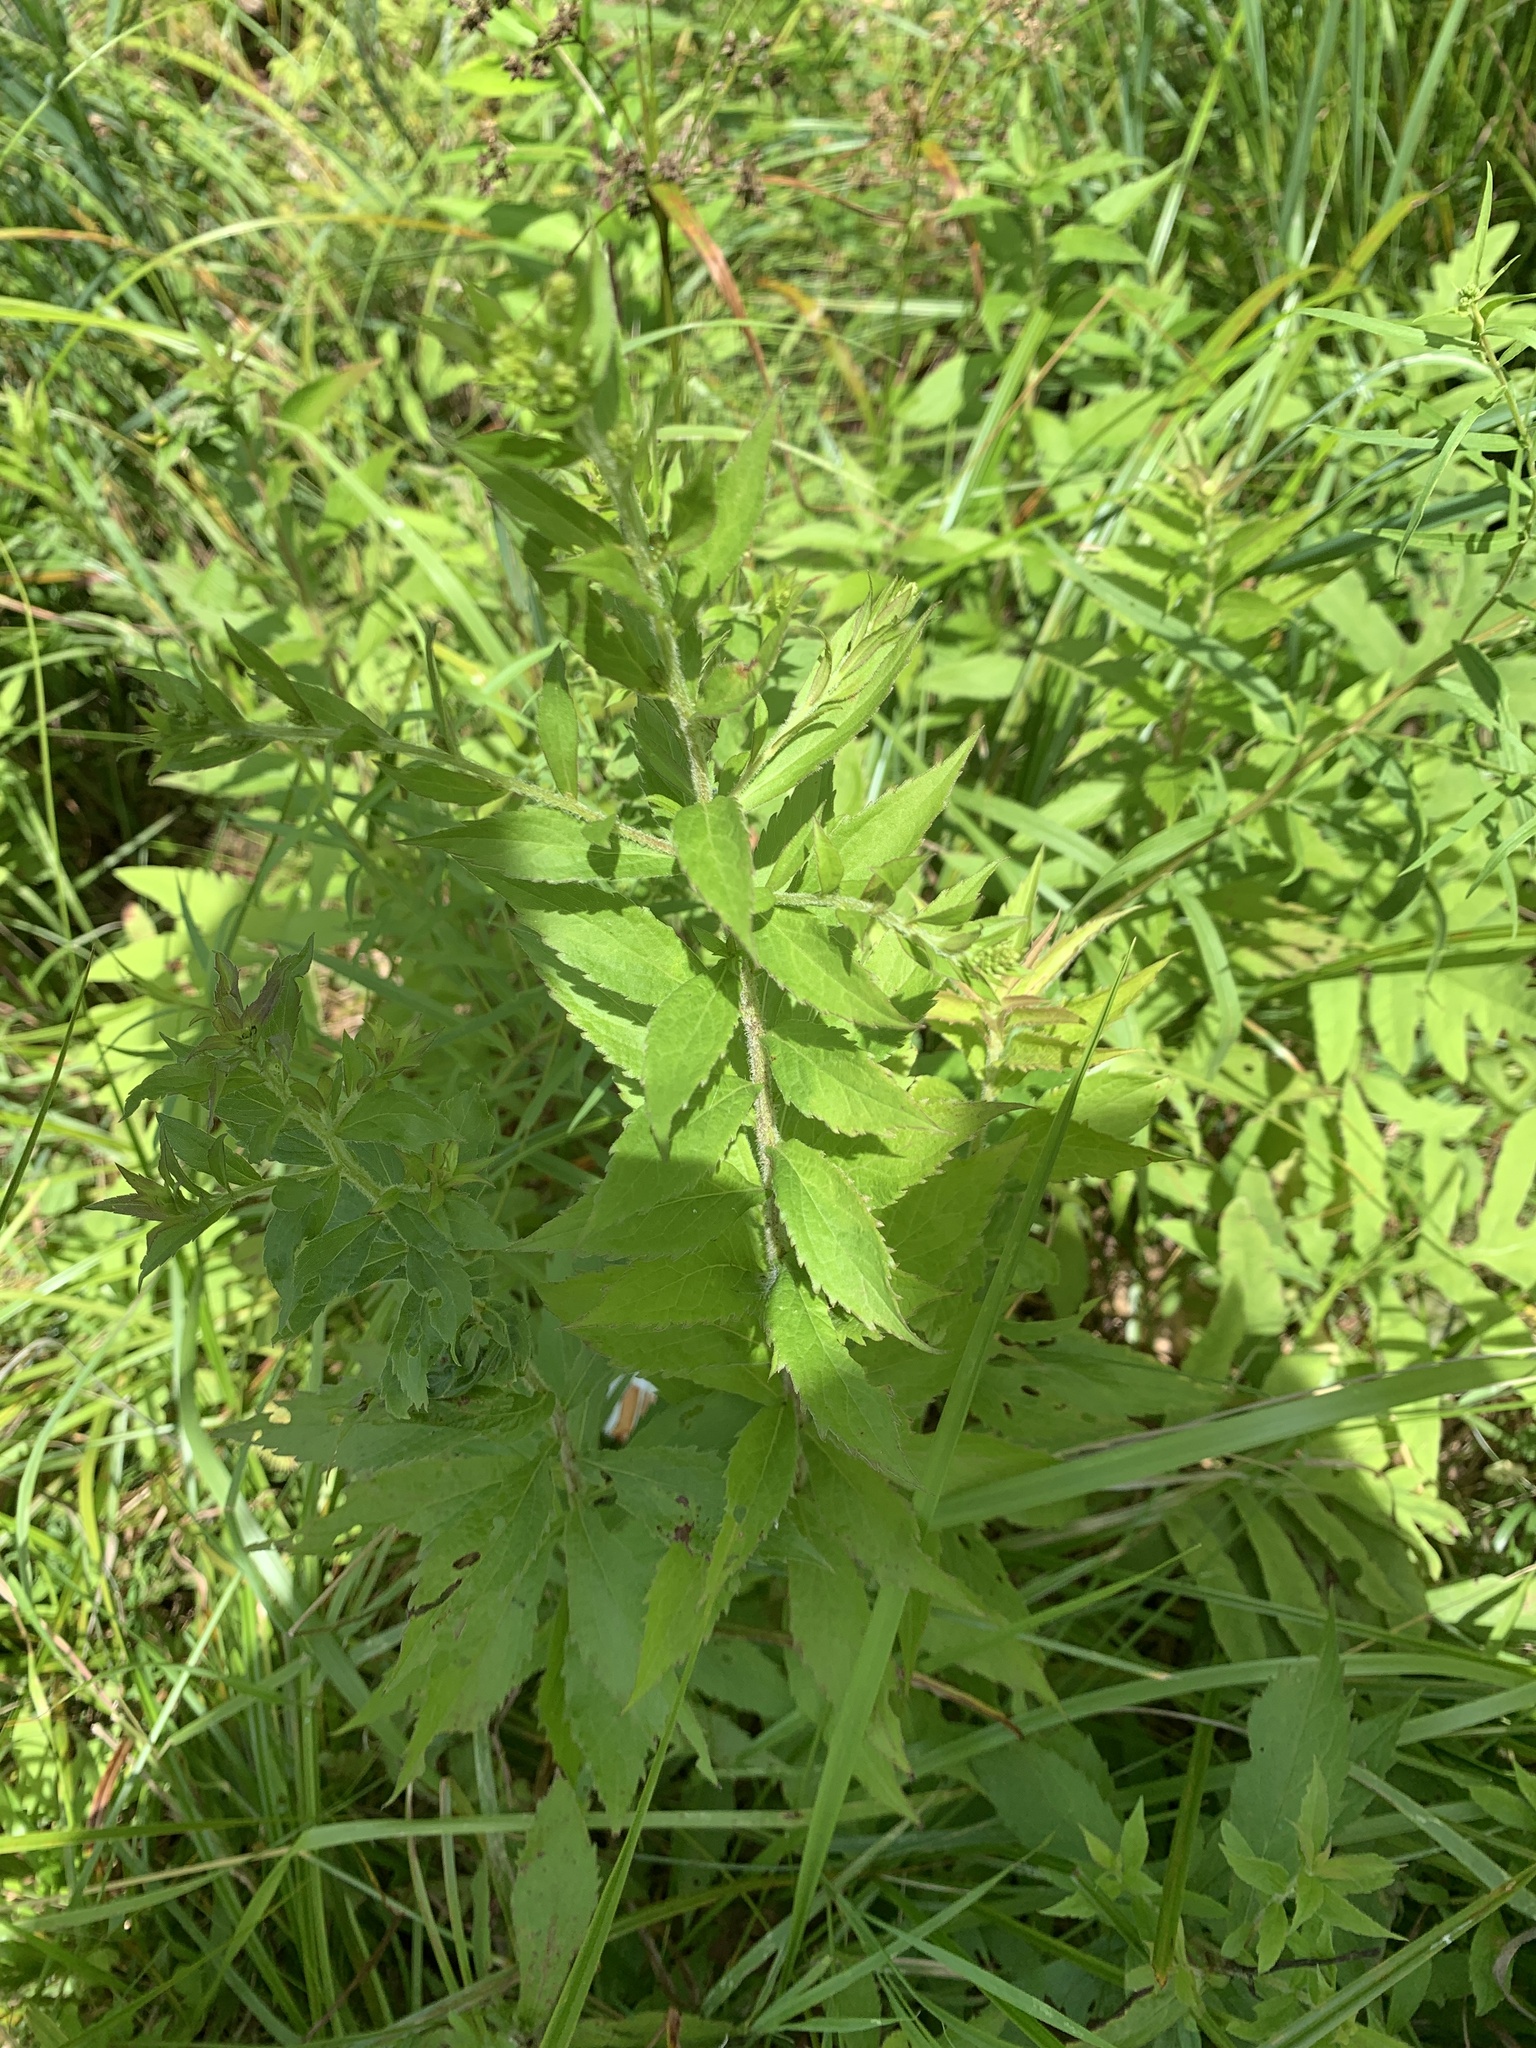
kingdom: Plantae
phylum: Tracheophyta
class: Magnoliopsida
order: Asterales
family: Asteraceae
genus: Solidago
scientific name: Solidago rugosa
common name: Rough-stemmed goldenrod
